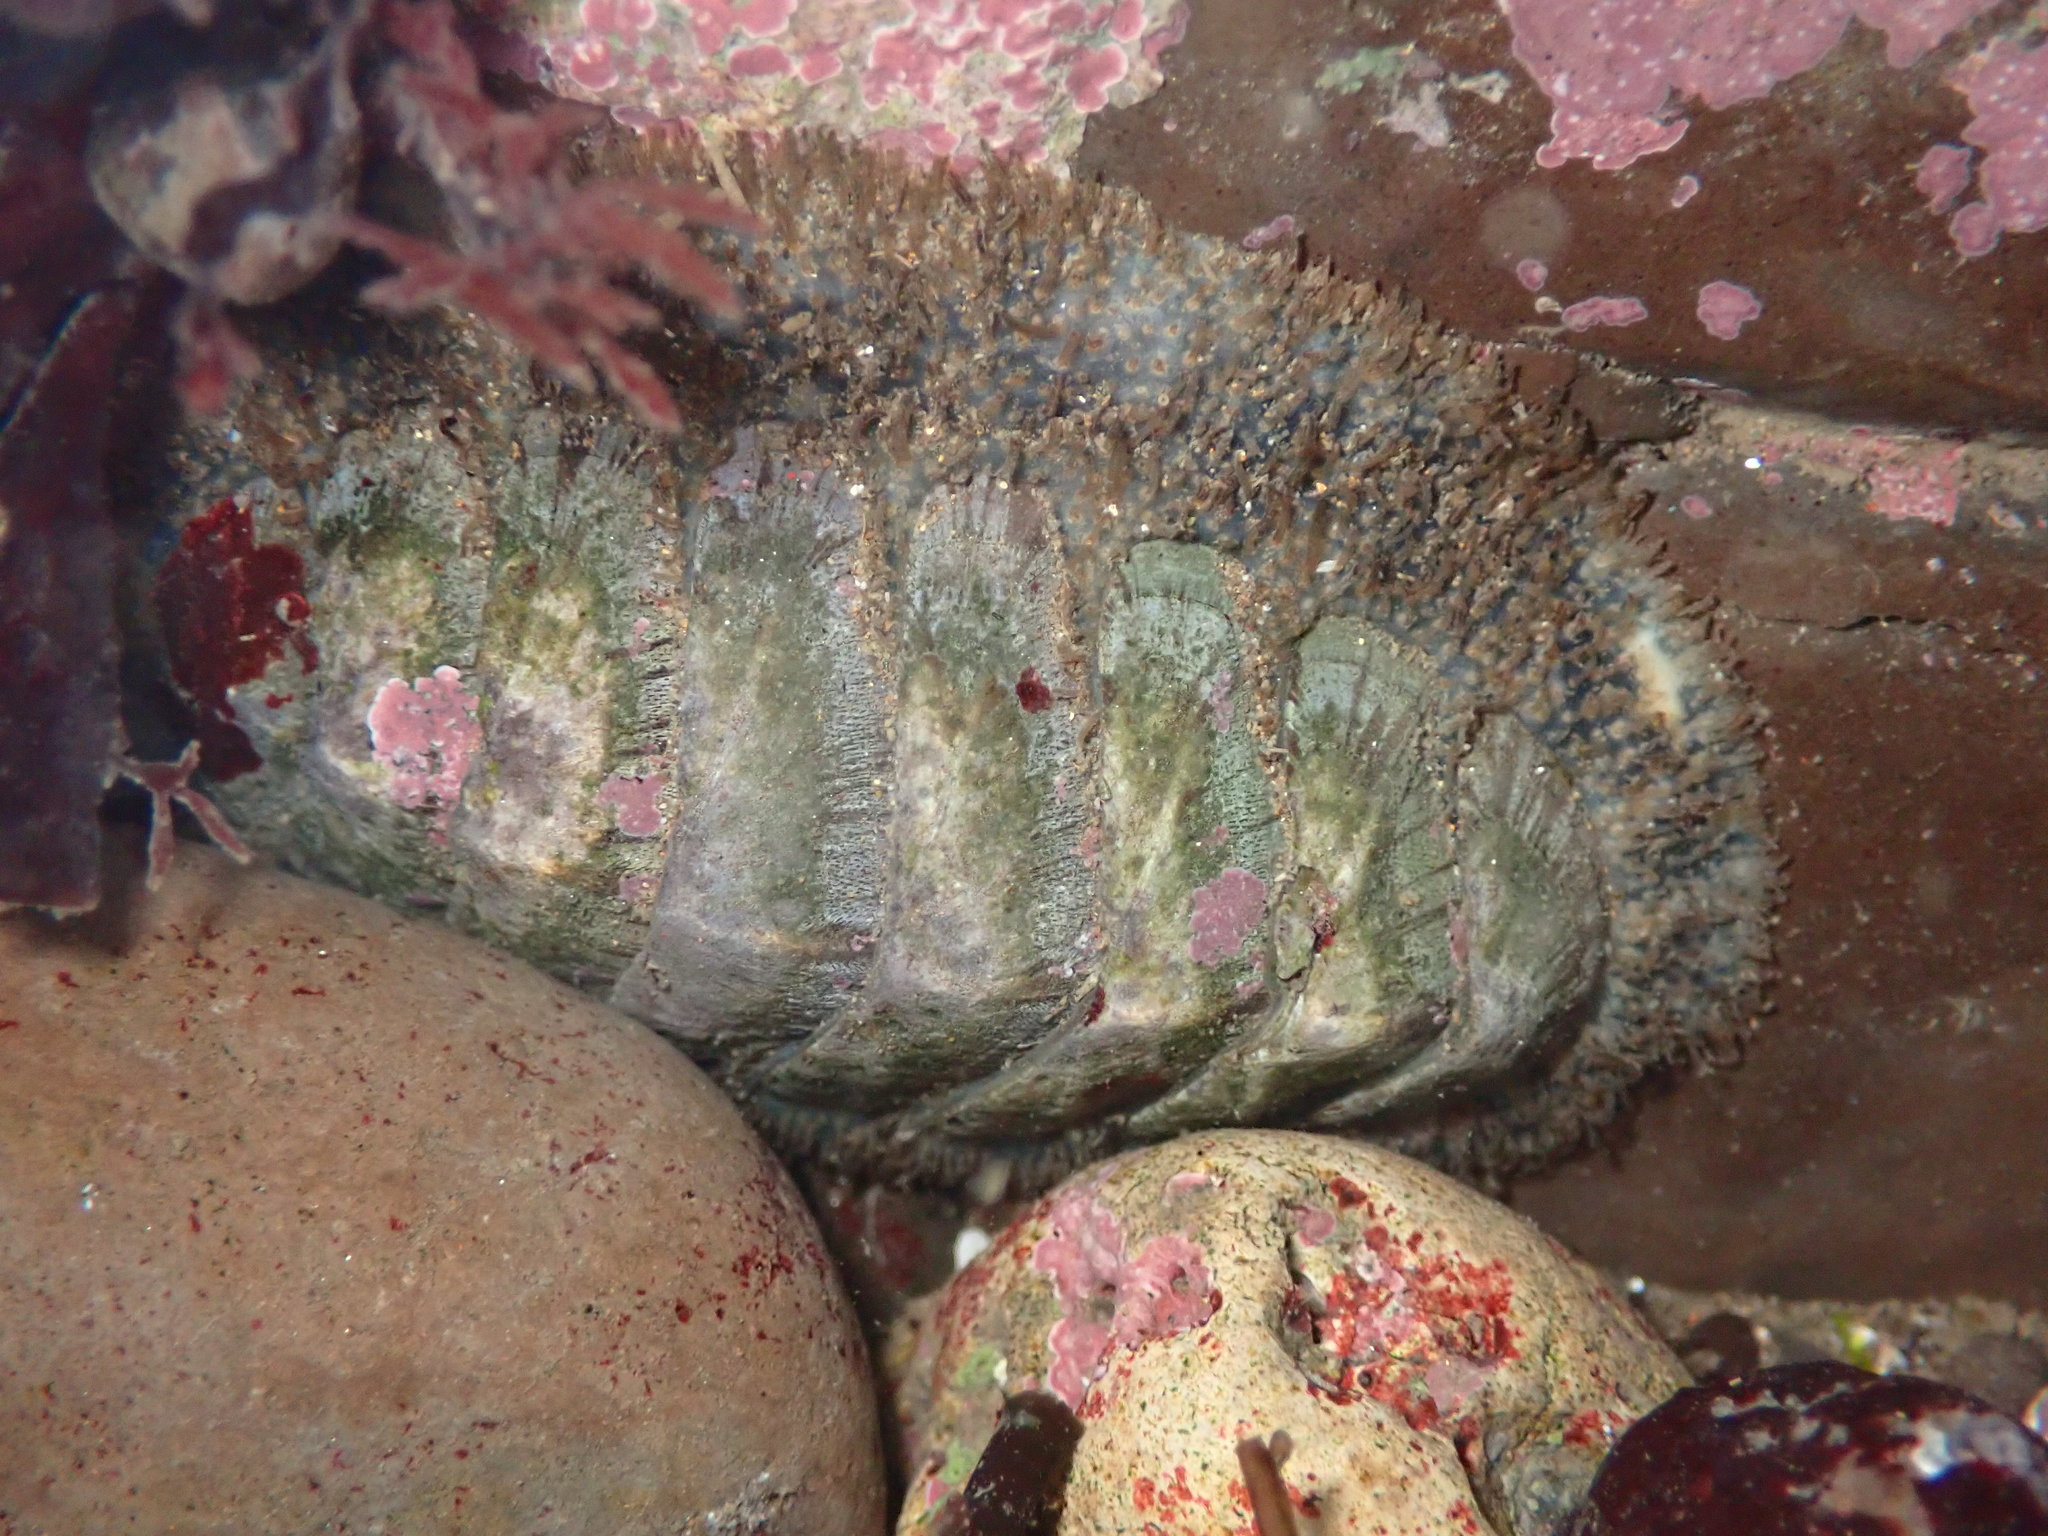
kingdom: Animalia
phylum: Mollusca
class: Polyplacophora
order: Chitonida
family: Mopaliidae
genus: Mopalia
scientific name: Mopalia lignosa
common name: Woody chiton
